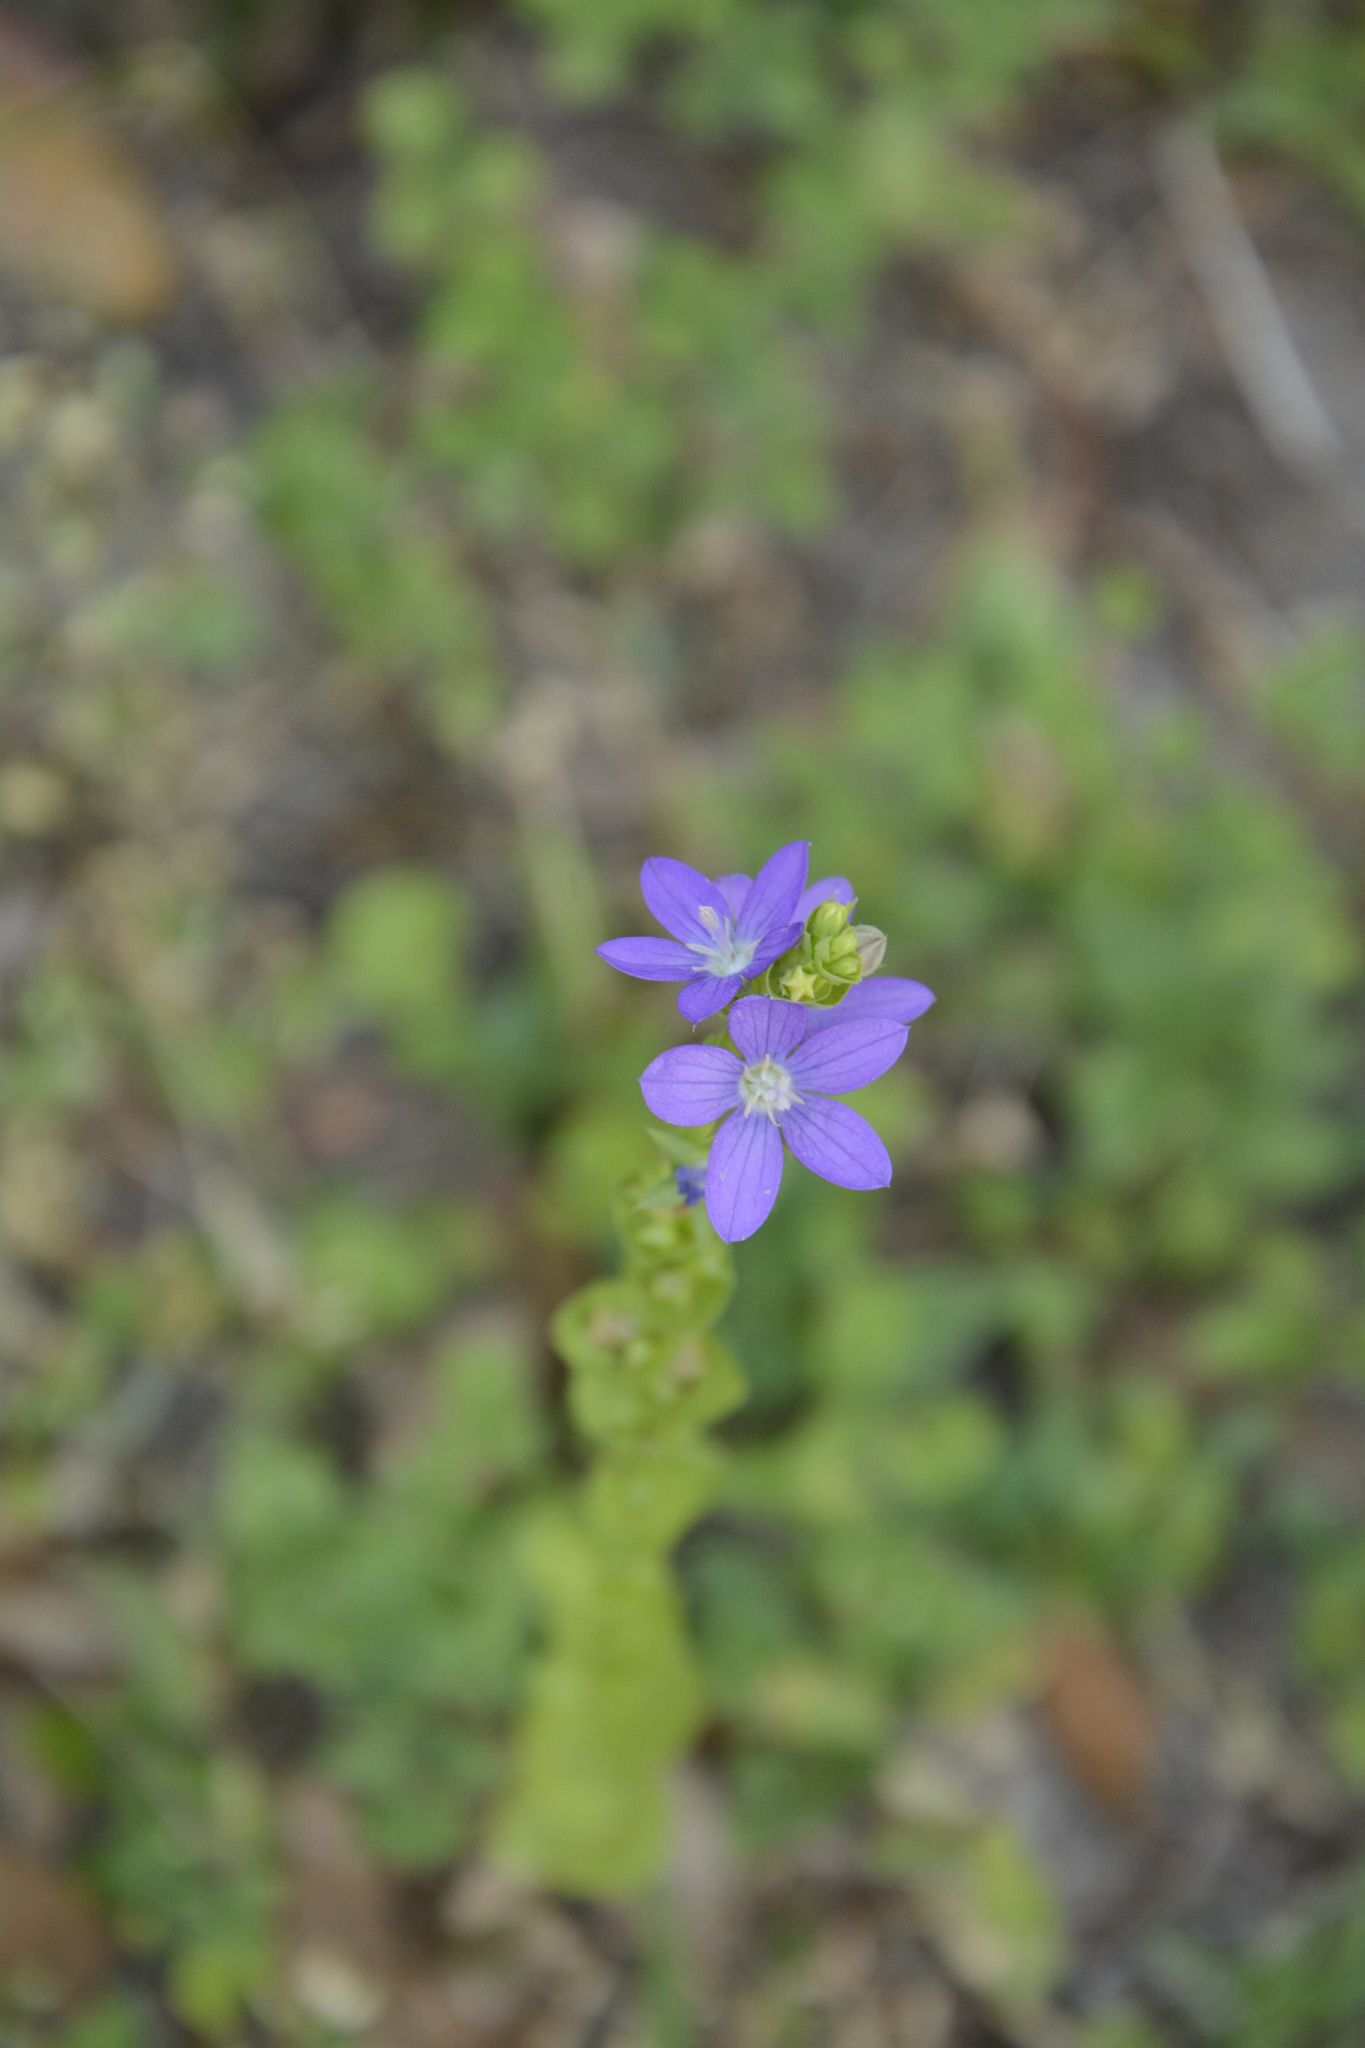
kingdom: Plantae
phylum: Tracheophyta
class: Magnoliopsida
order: Asterales
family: Campanulaceae
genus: Triodanis
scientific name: Triodanis perfoliata
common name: Clasping venus' looking-glass
